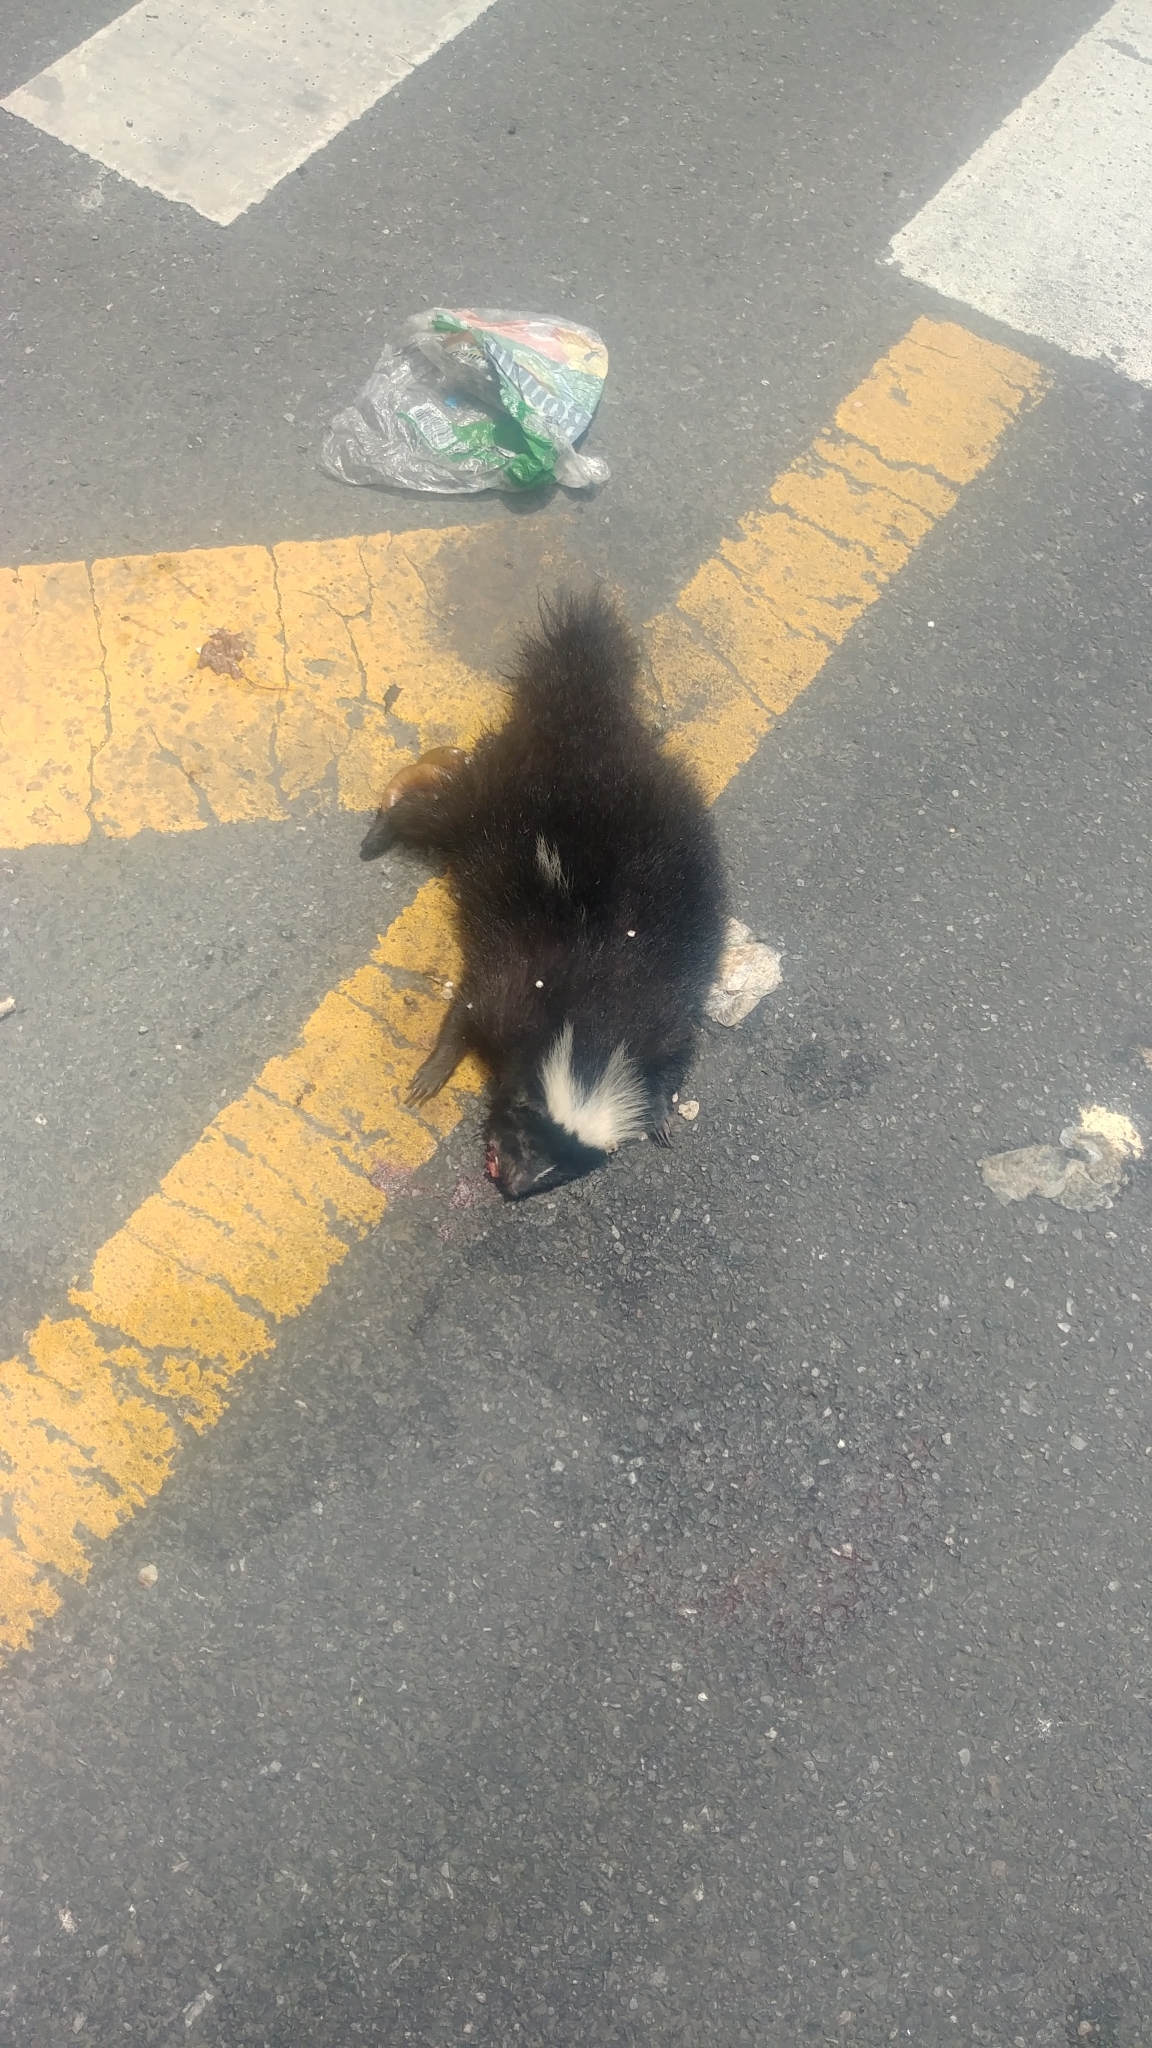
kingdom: Animalia
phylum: Chordata
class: Mammalia
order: Carnivora
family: Mephitidae
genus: Mephitis
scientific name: Mephitis mephitis
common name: Striped skunk
